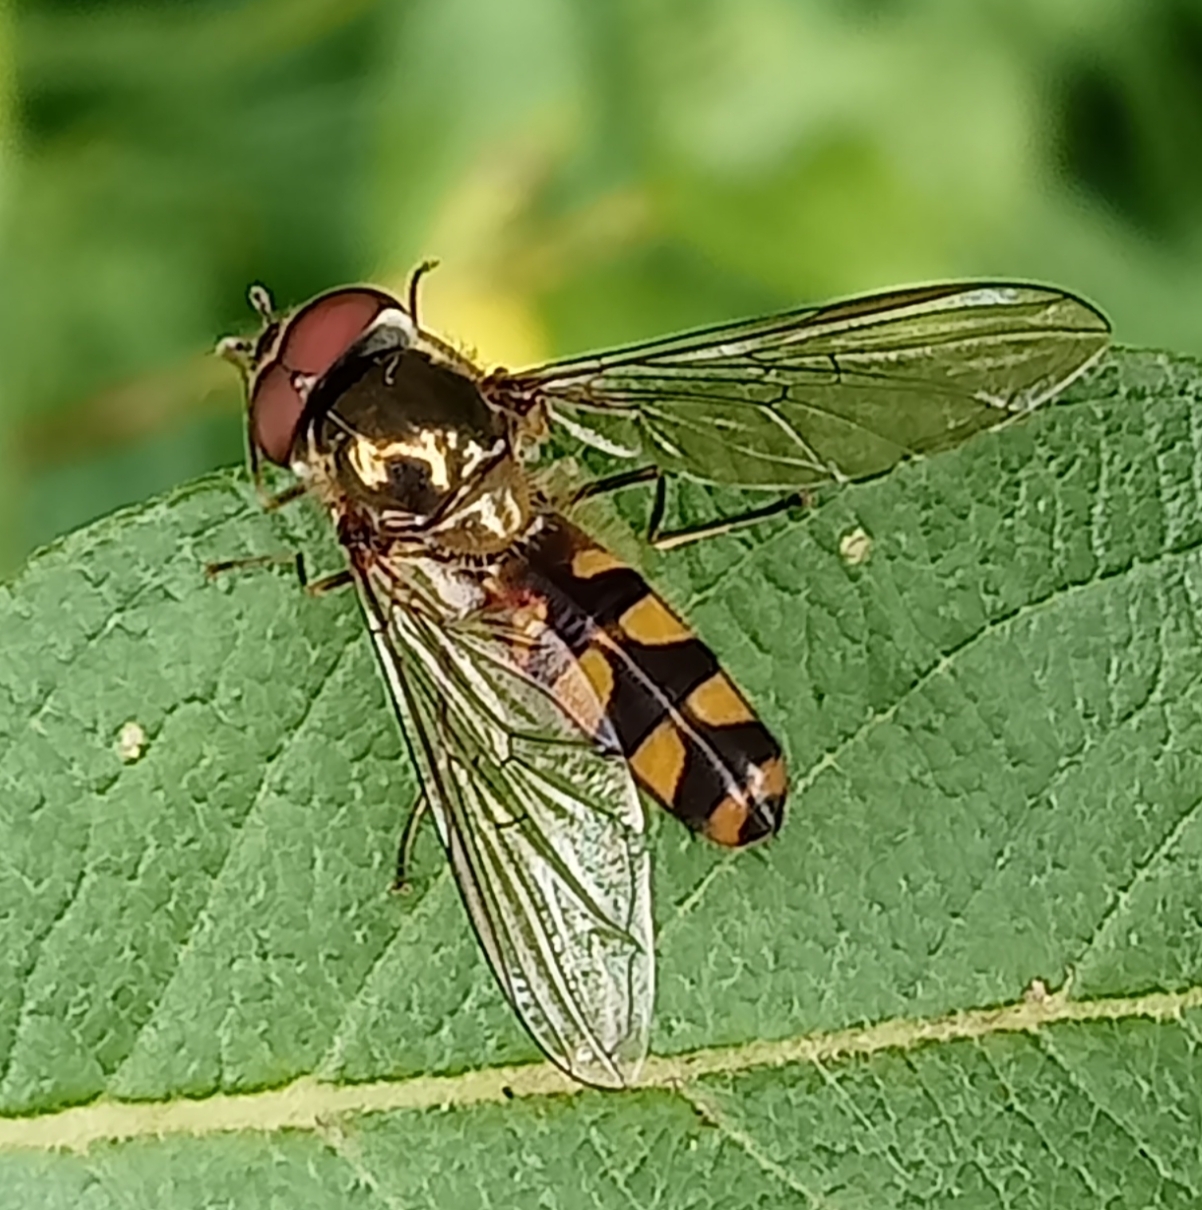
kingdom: Animalia
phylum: Arthropoda
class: Insecta
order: Diptera
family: Syrphidae
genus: Meliscaeva
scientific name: Meliscaeva auricollis
